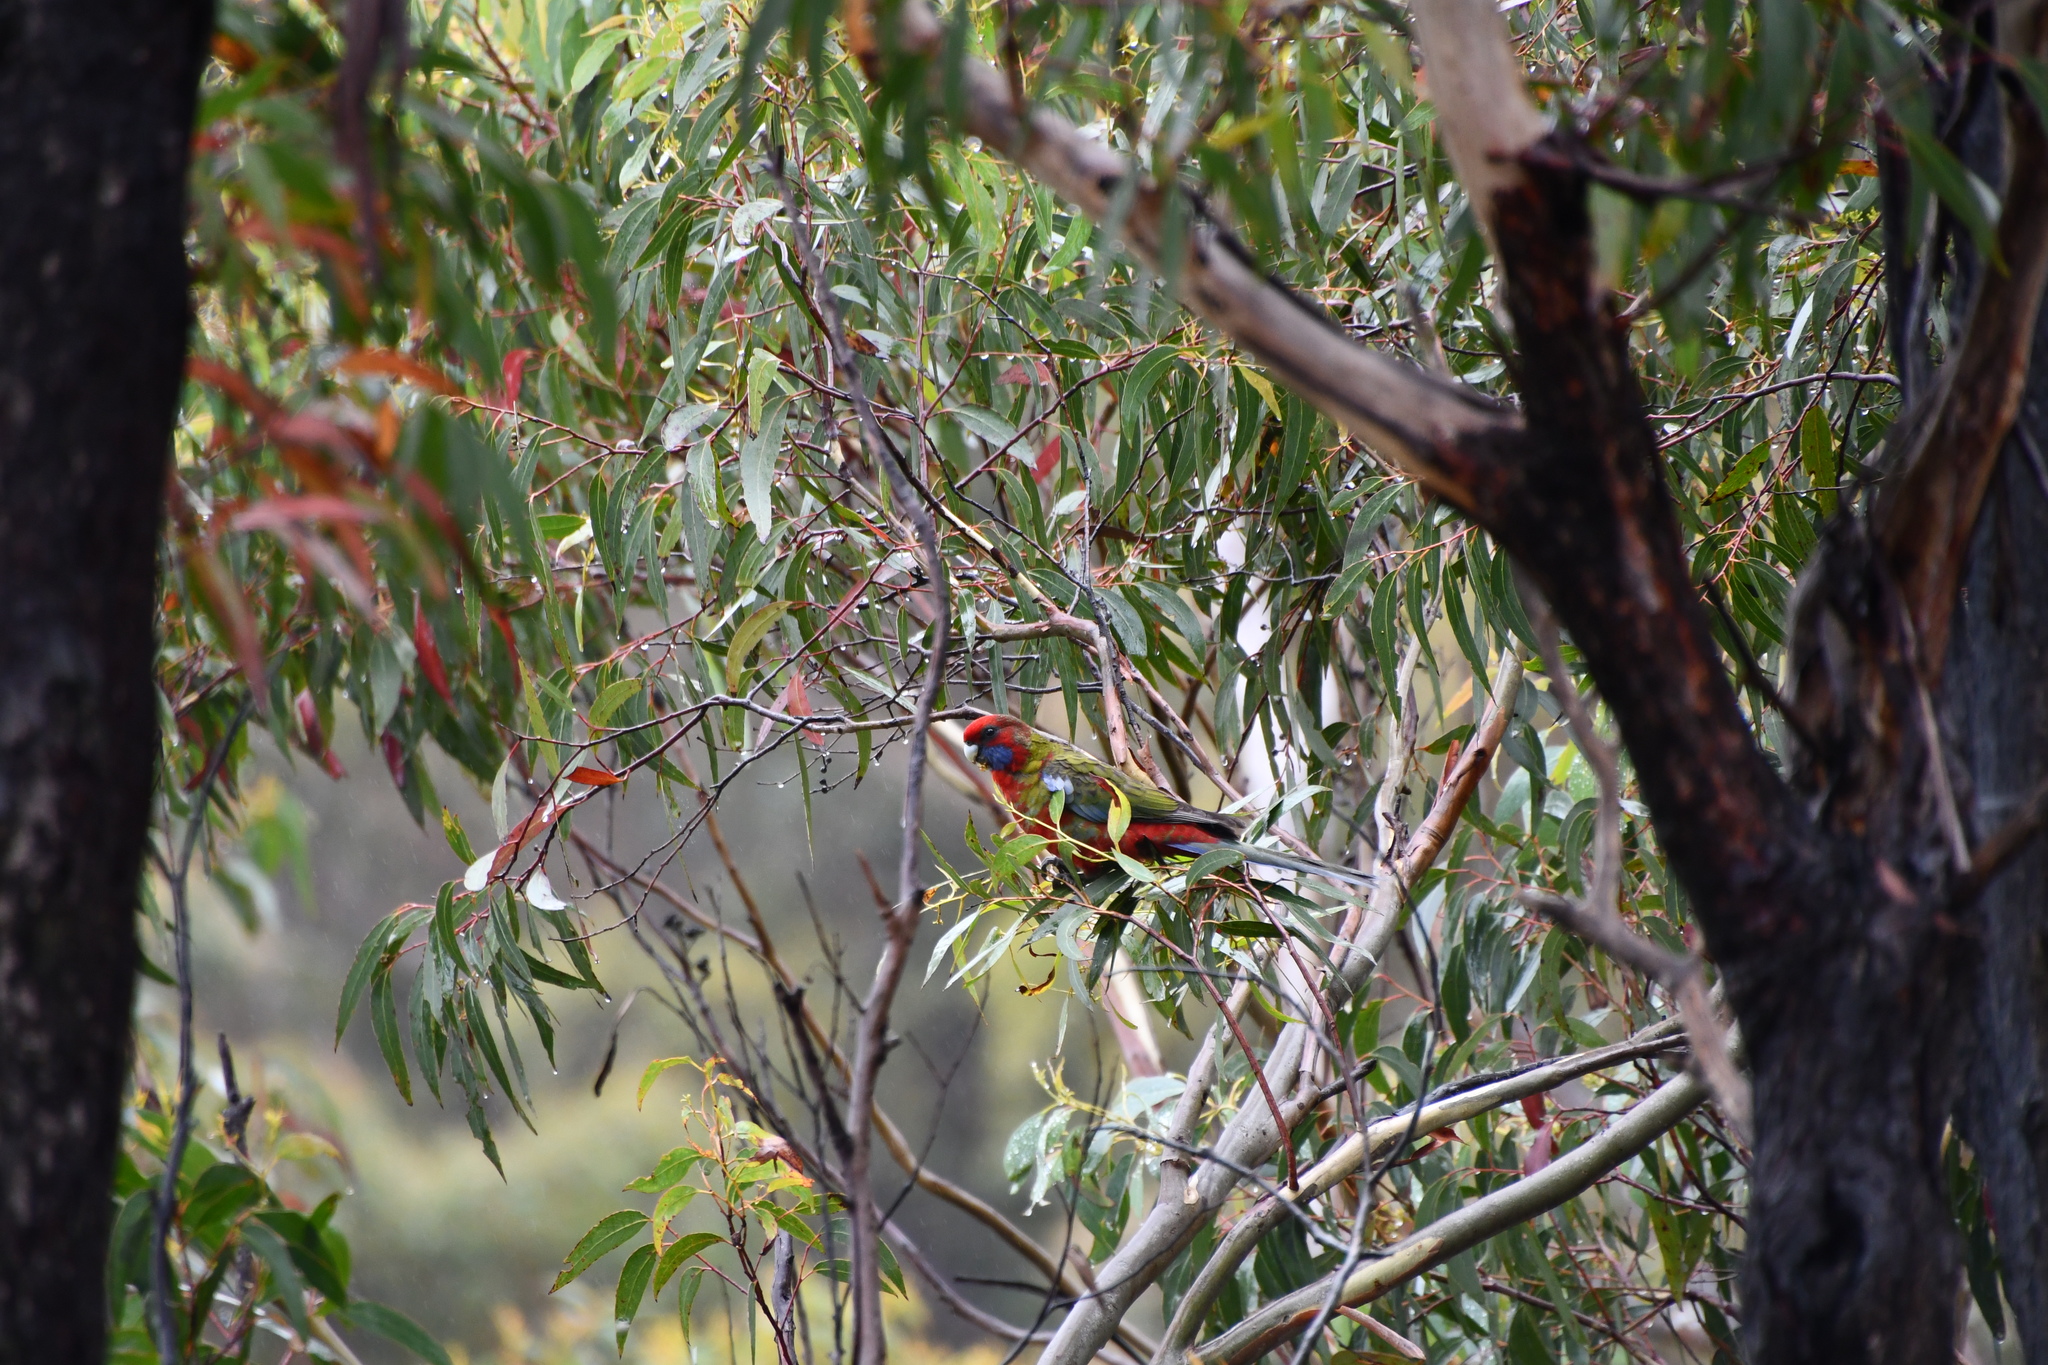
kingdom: Animalia
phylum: Chordata
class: Aves
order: Psittaciformes
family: Psittacidae
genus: Platycercus
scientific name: Platycercus elegans
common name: Crimson rosella
